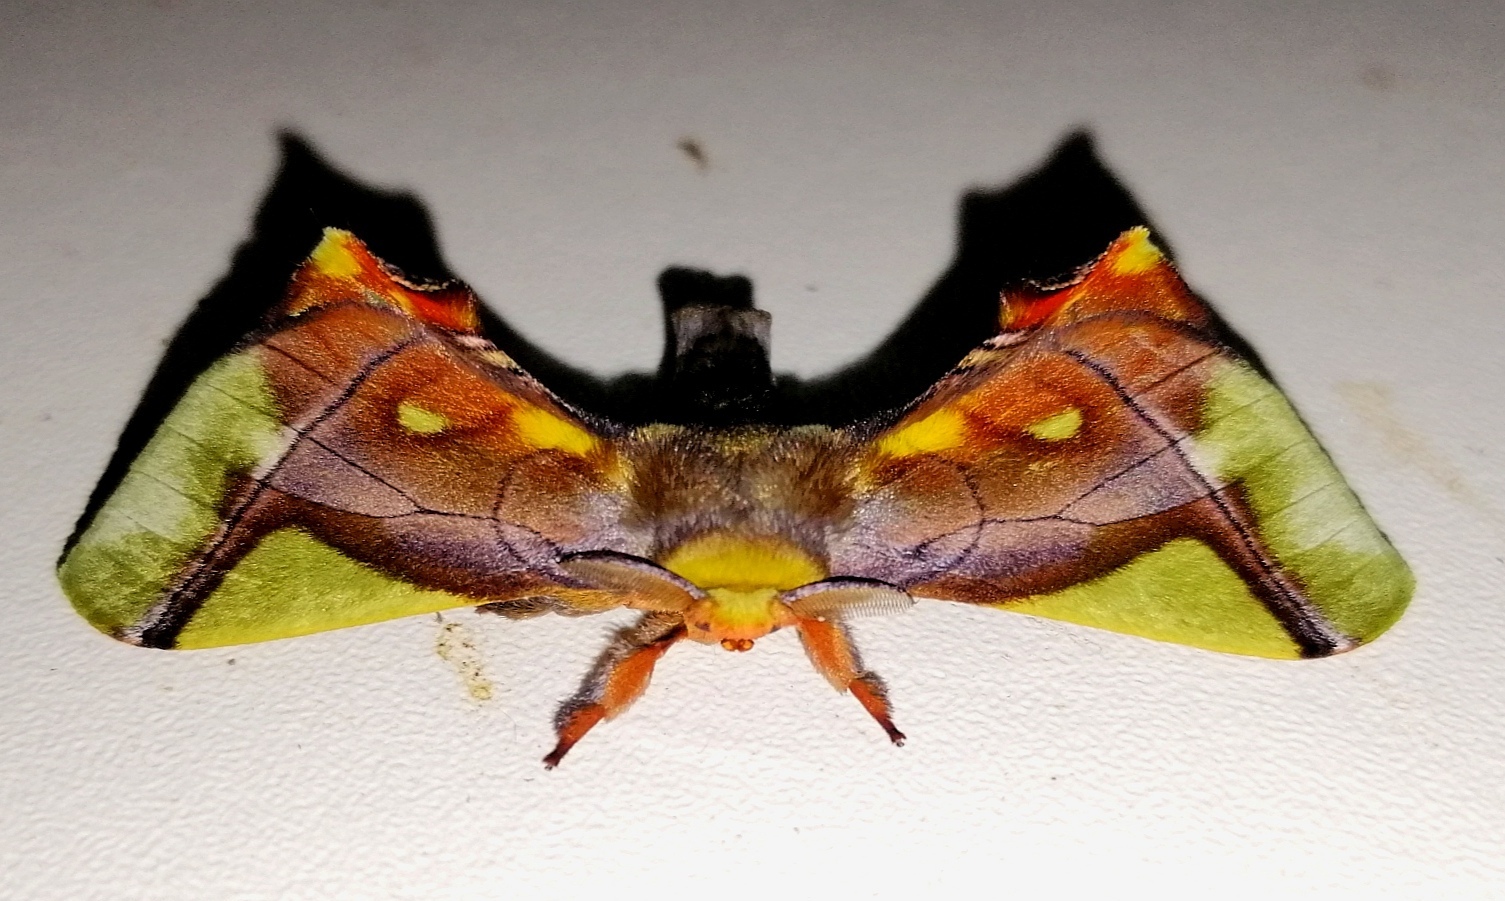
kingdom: Animalia
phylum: Arthropoda
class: Insecta
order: Lepidoptera
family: Bombycidae
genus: Epia
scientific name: Epia muscosa
